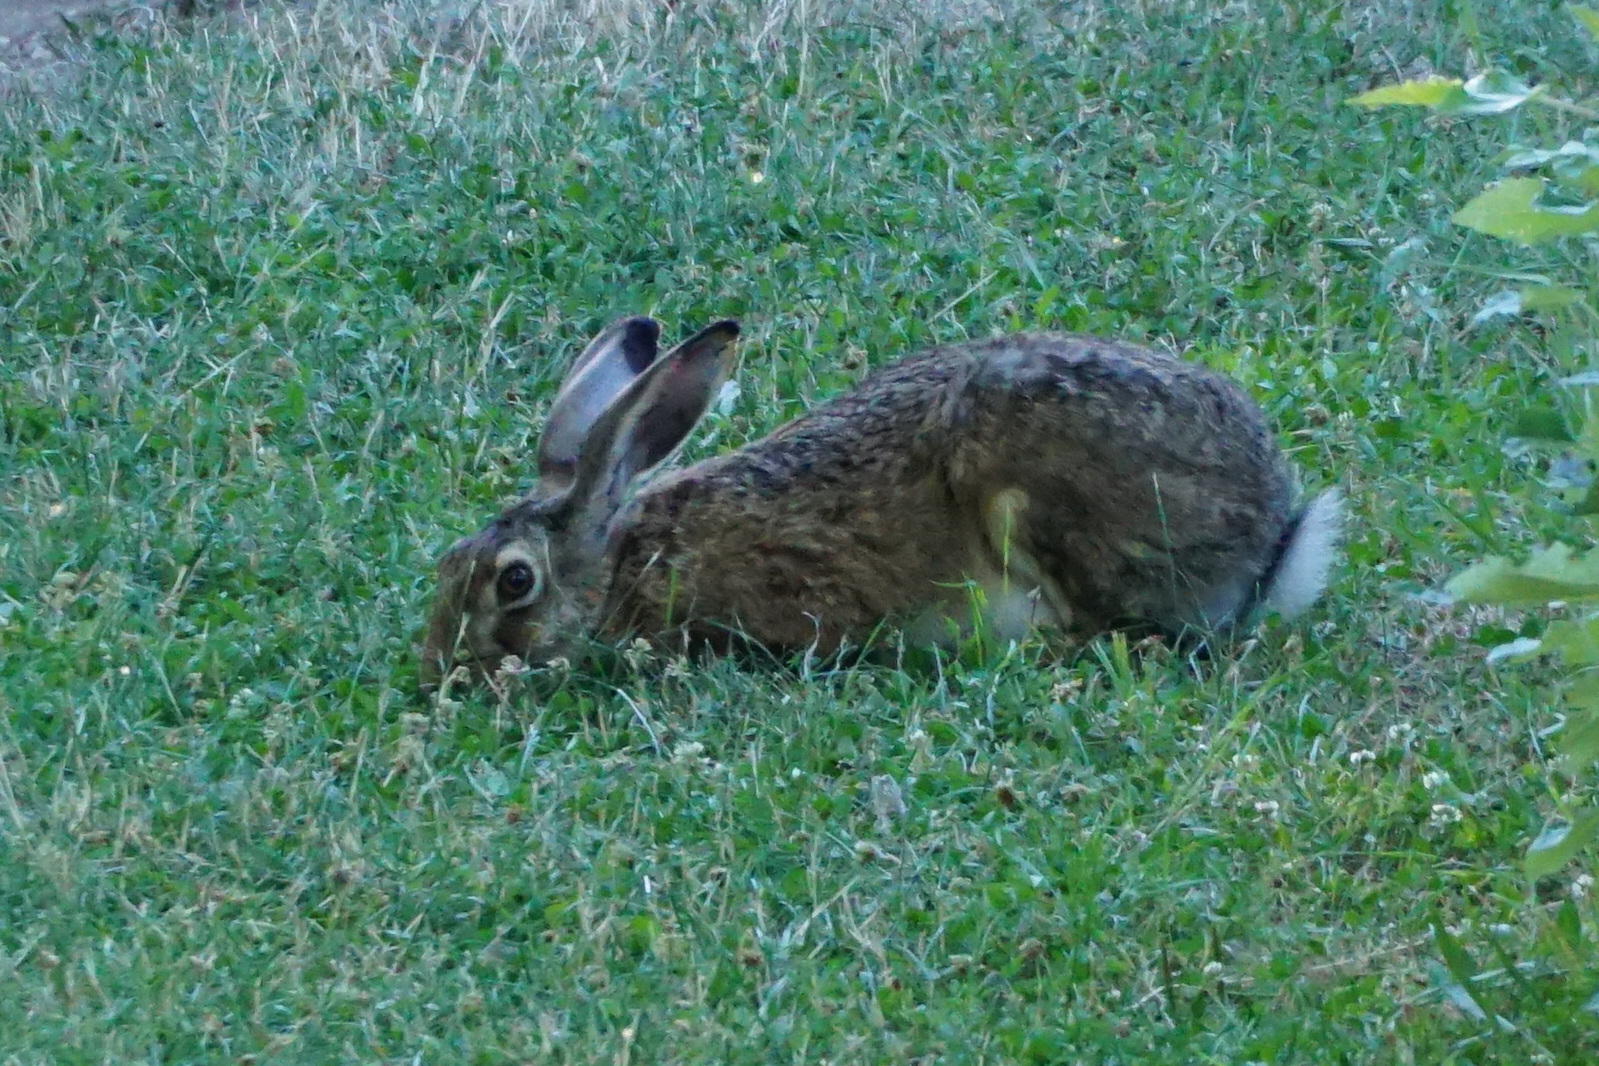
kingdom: Animalia
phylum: Chordata
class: Mammalia
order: Lagomorpha
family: Leporidae
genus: Lepus
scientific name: Lepus europaeus
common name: European hare
